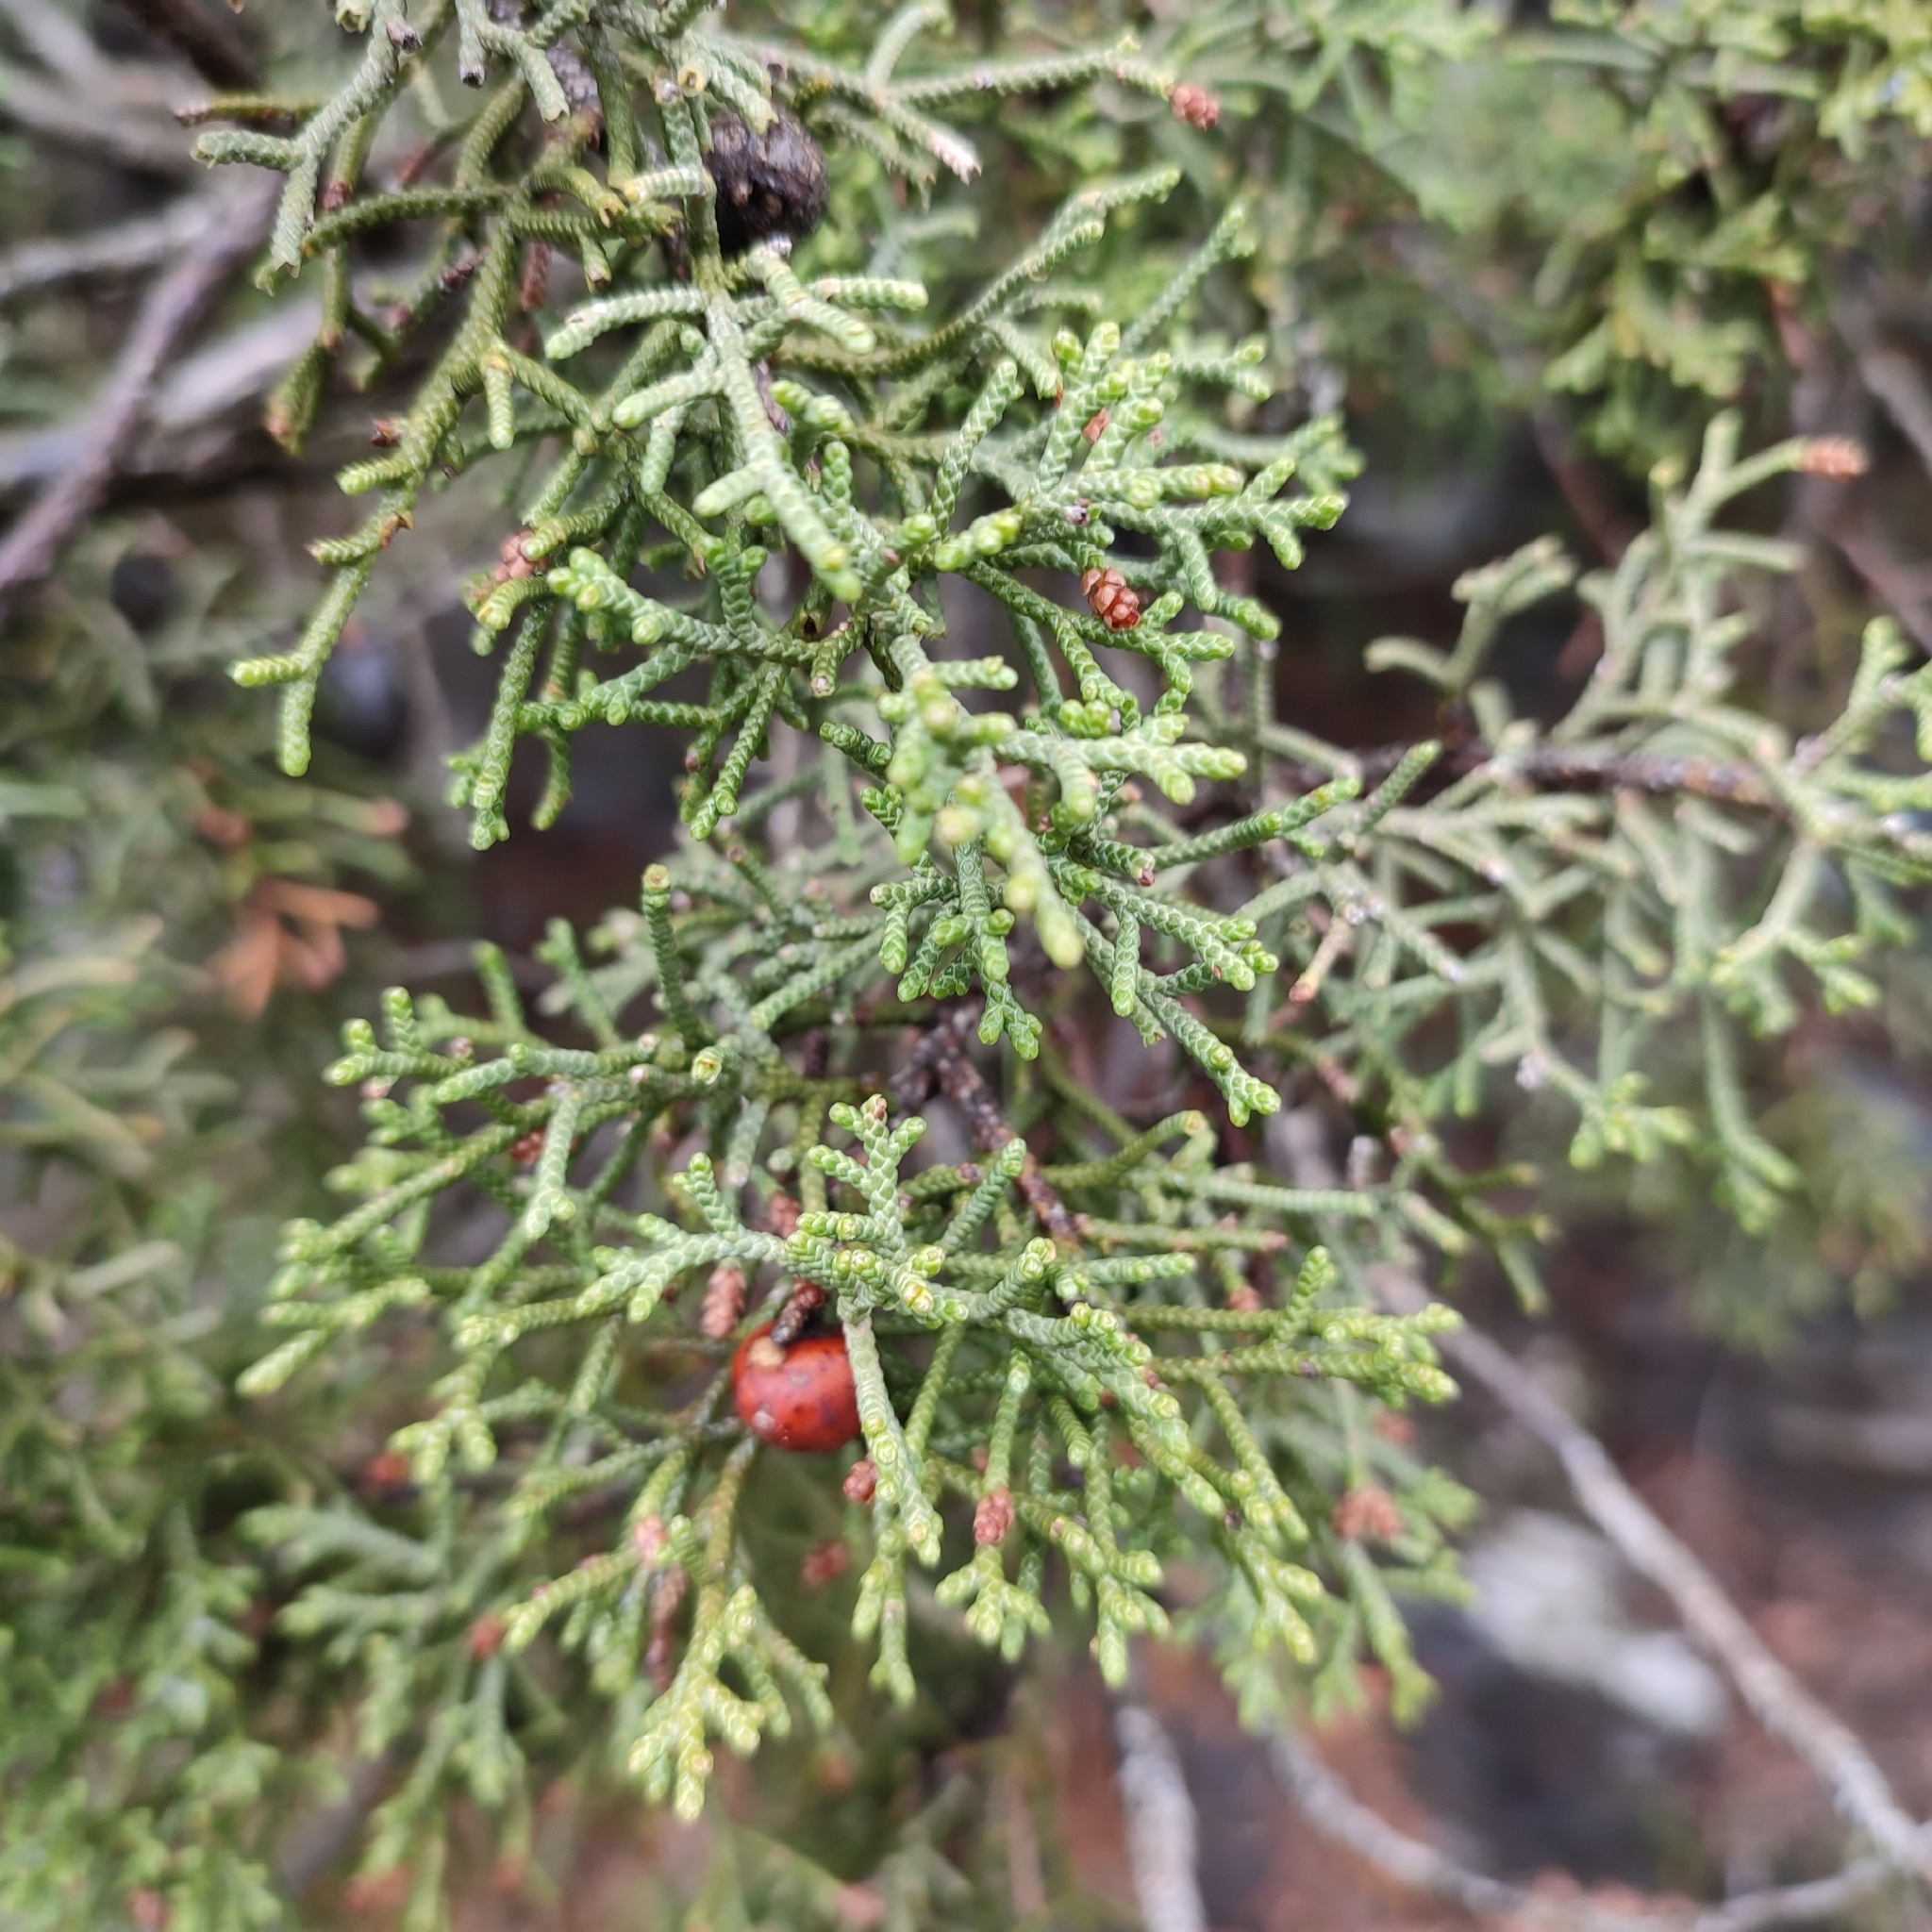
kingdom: Plantae
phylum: Tracheophyta
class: Pinopsida
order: Pinales
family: Cupressaceae
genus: Juniperus
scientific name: Juniperus phoenicea
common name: Phoenician juniper
